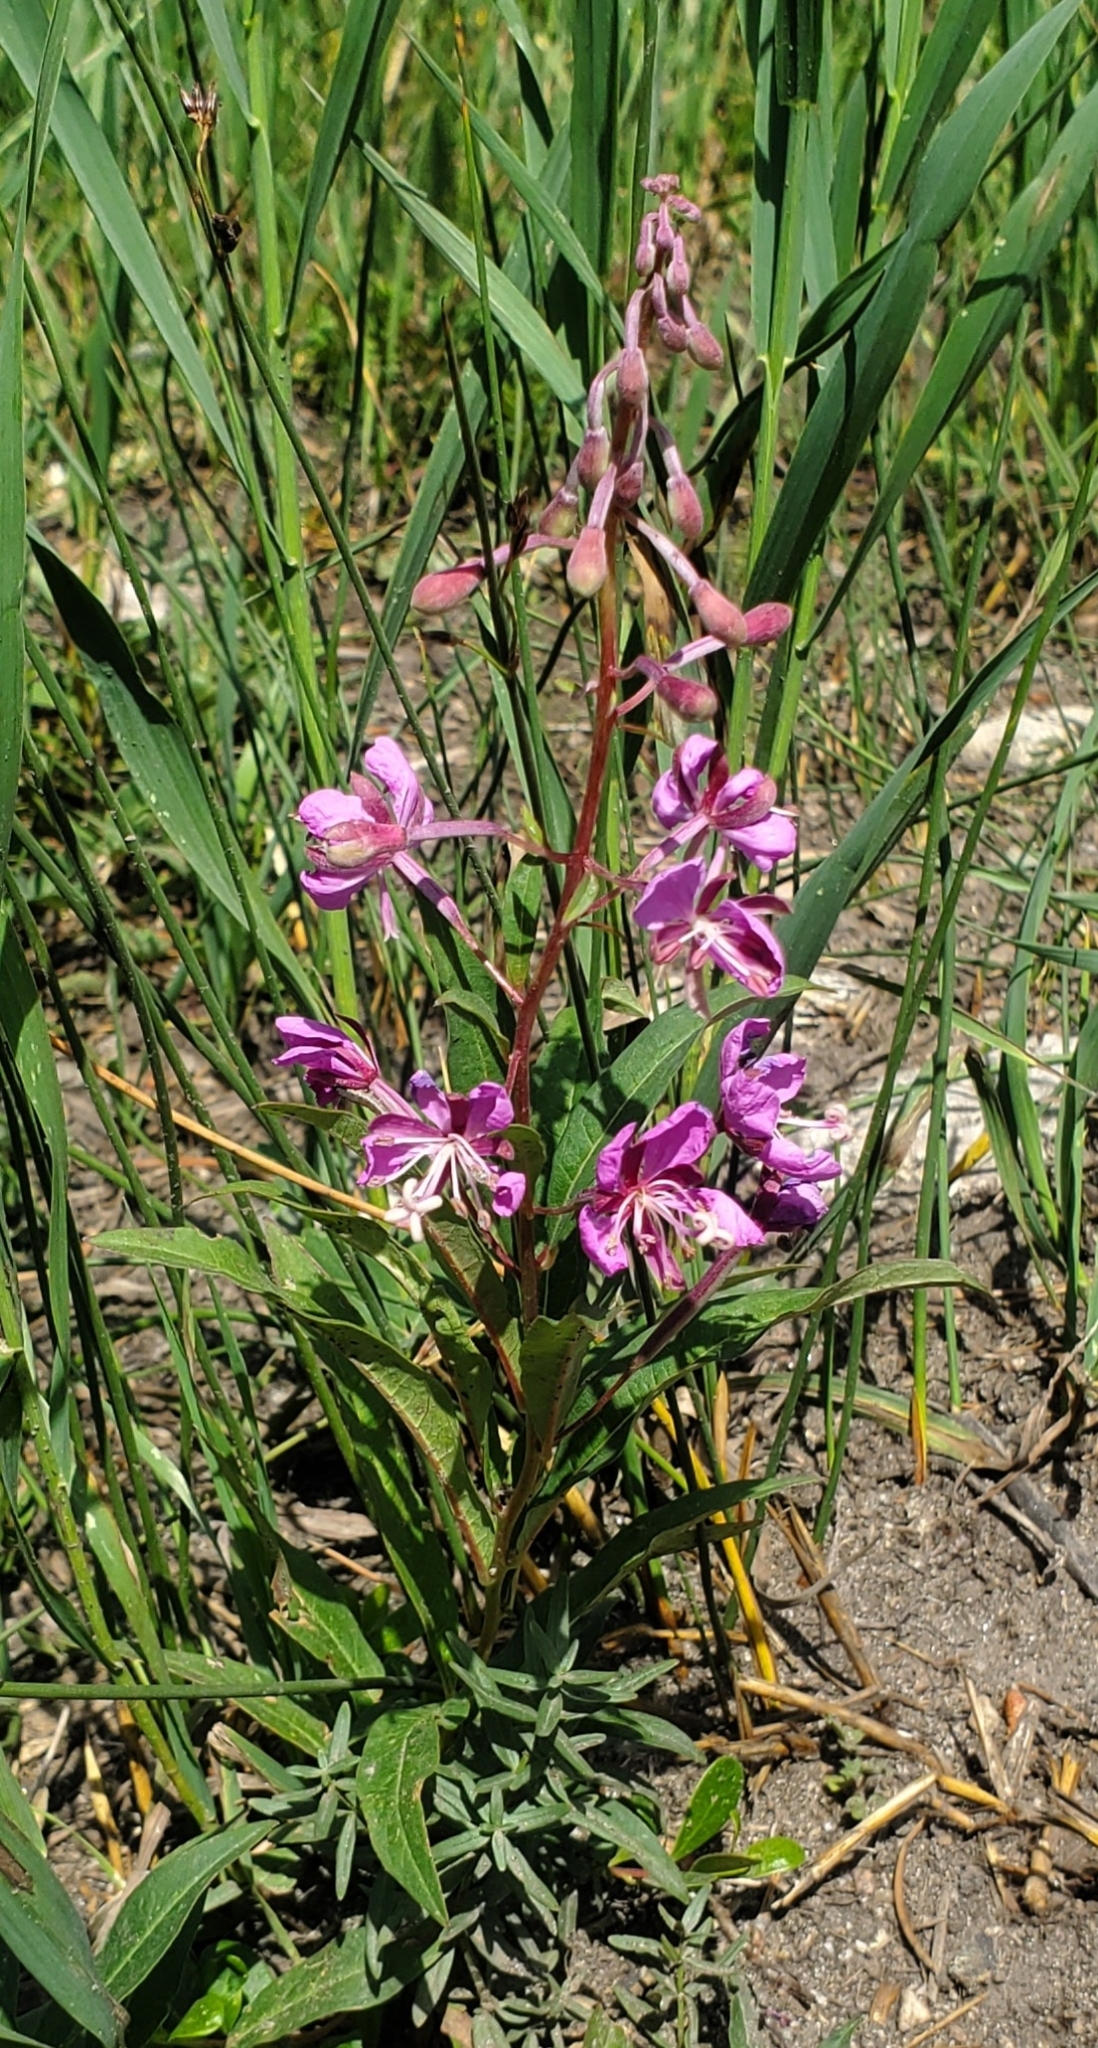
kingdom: Plantae
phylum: Tracheophyta
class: Magnoliopsida
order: Myrtales
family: Onagraceae
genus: Chamaenerion
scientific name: Chamaenerion angustifolium
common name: Fireweed
